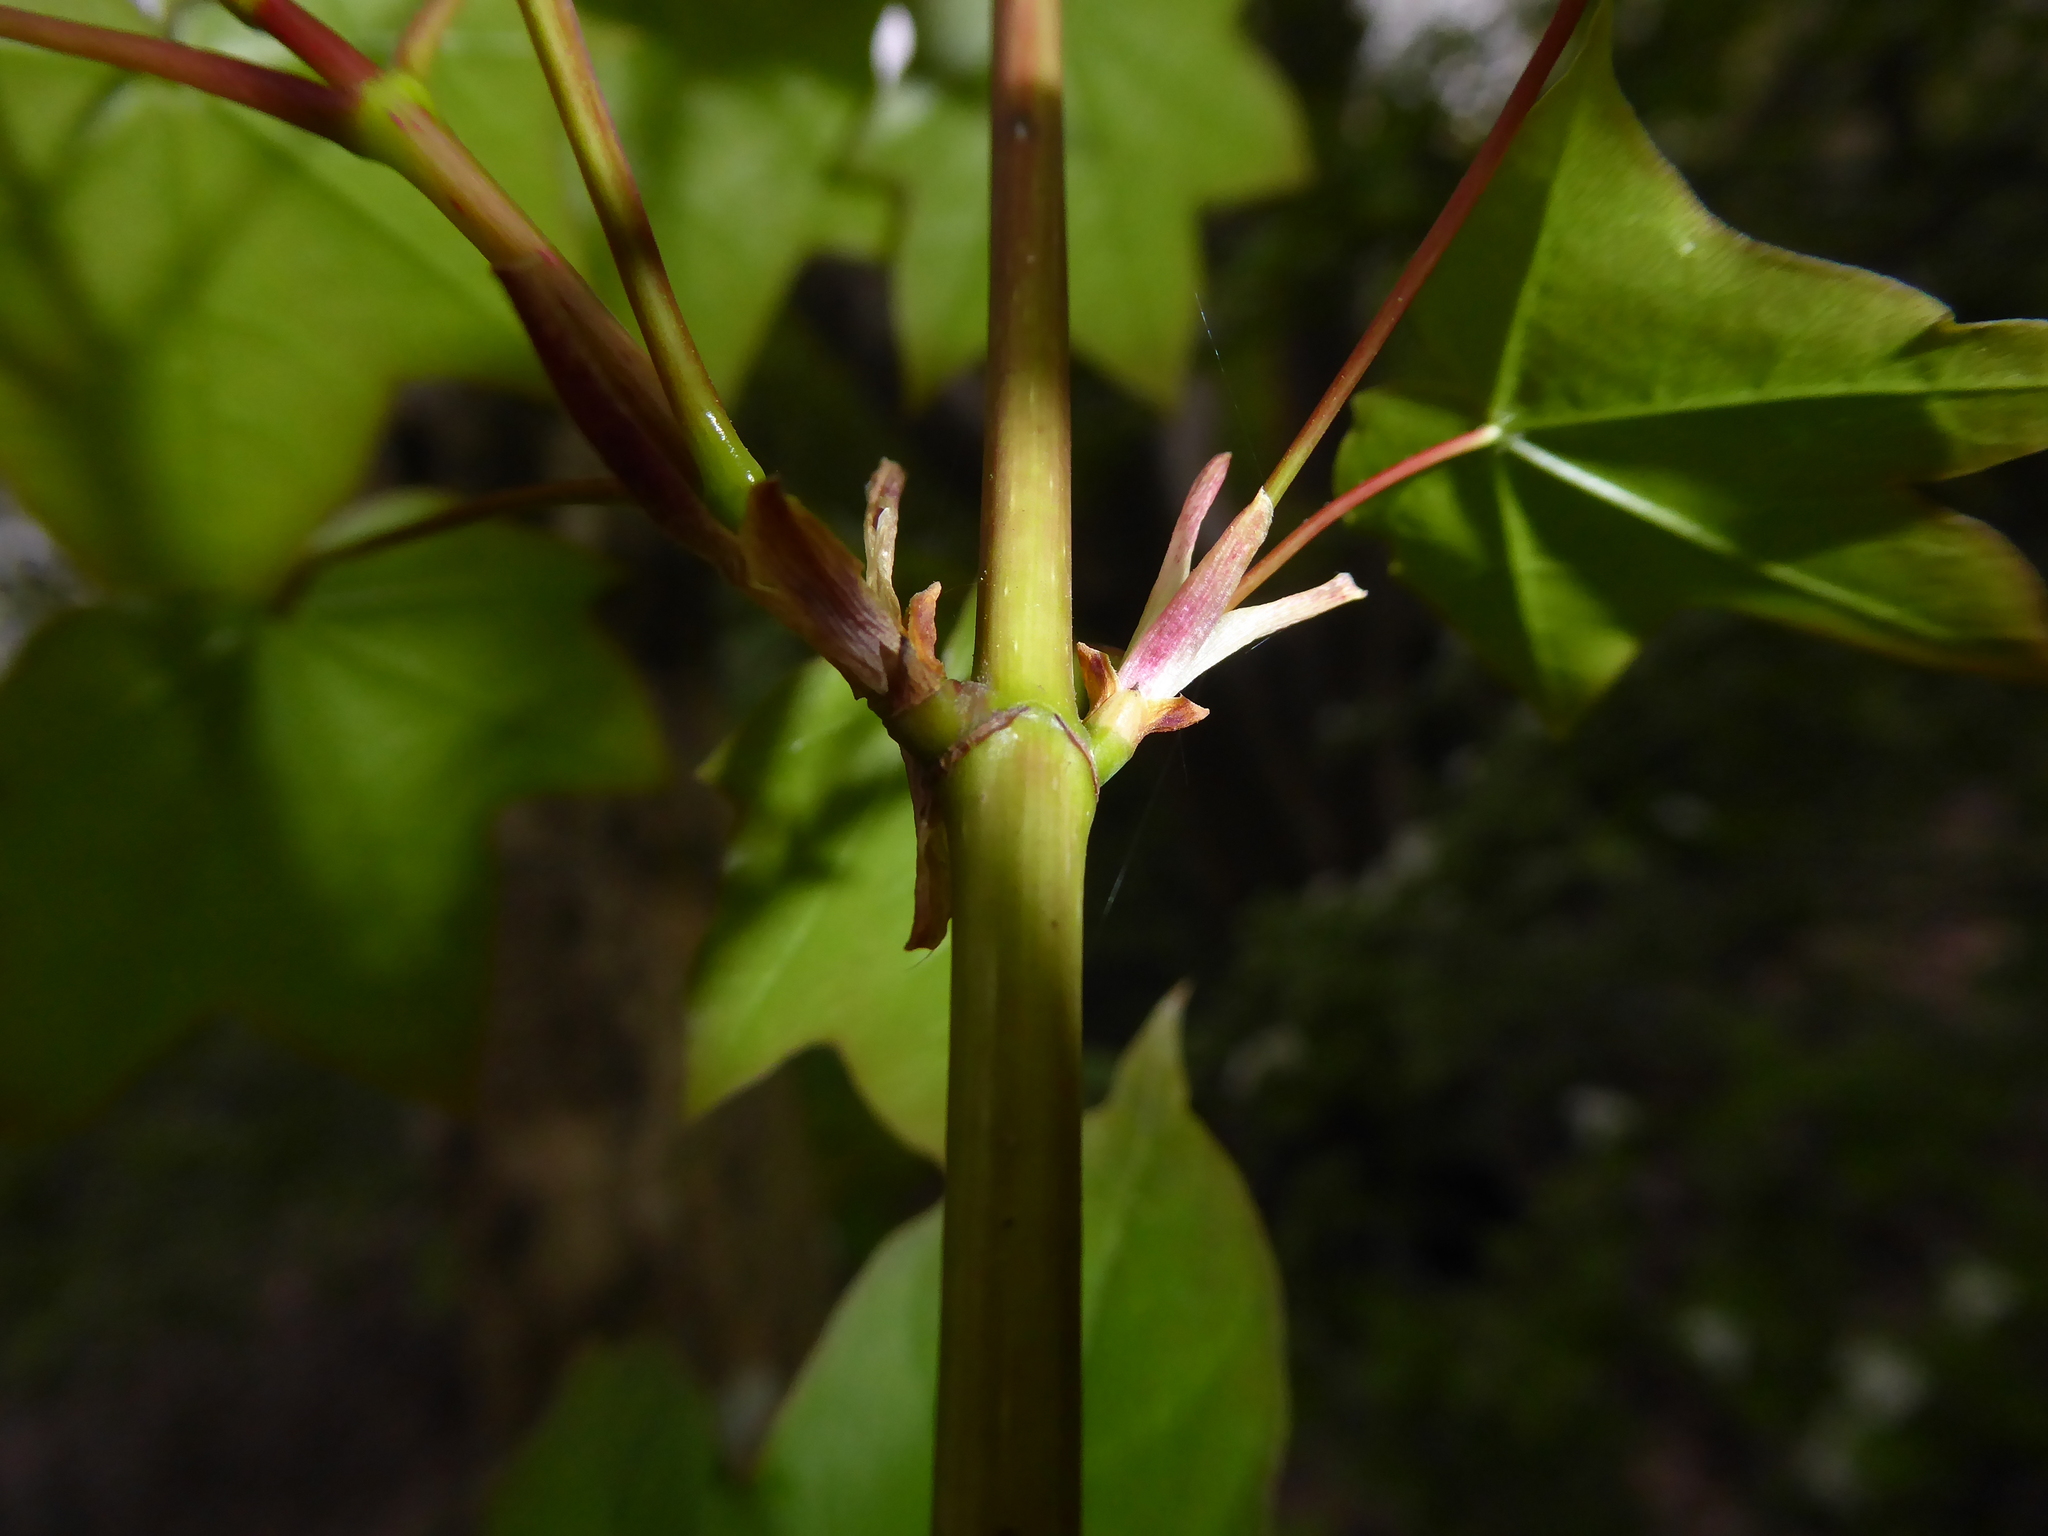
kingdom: Plantae
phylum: Tracheophyta
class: Magnoliopsida
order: Sapindales
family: Sapindaceae
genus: Acer
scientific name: Acer cappadocicum
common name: Cappadocian maple
